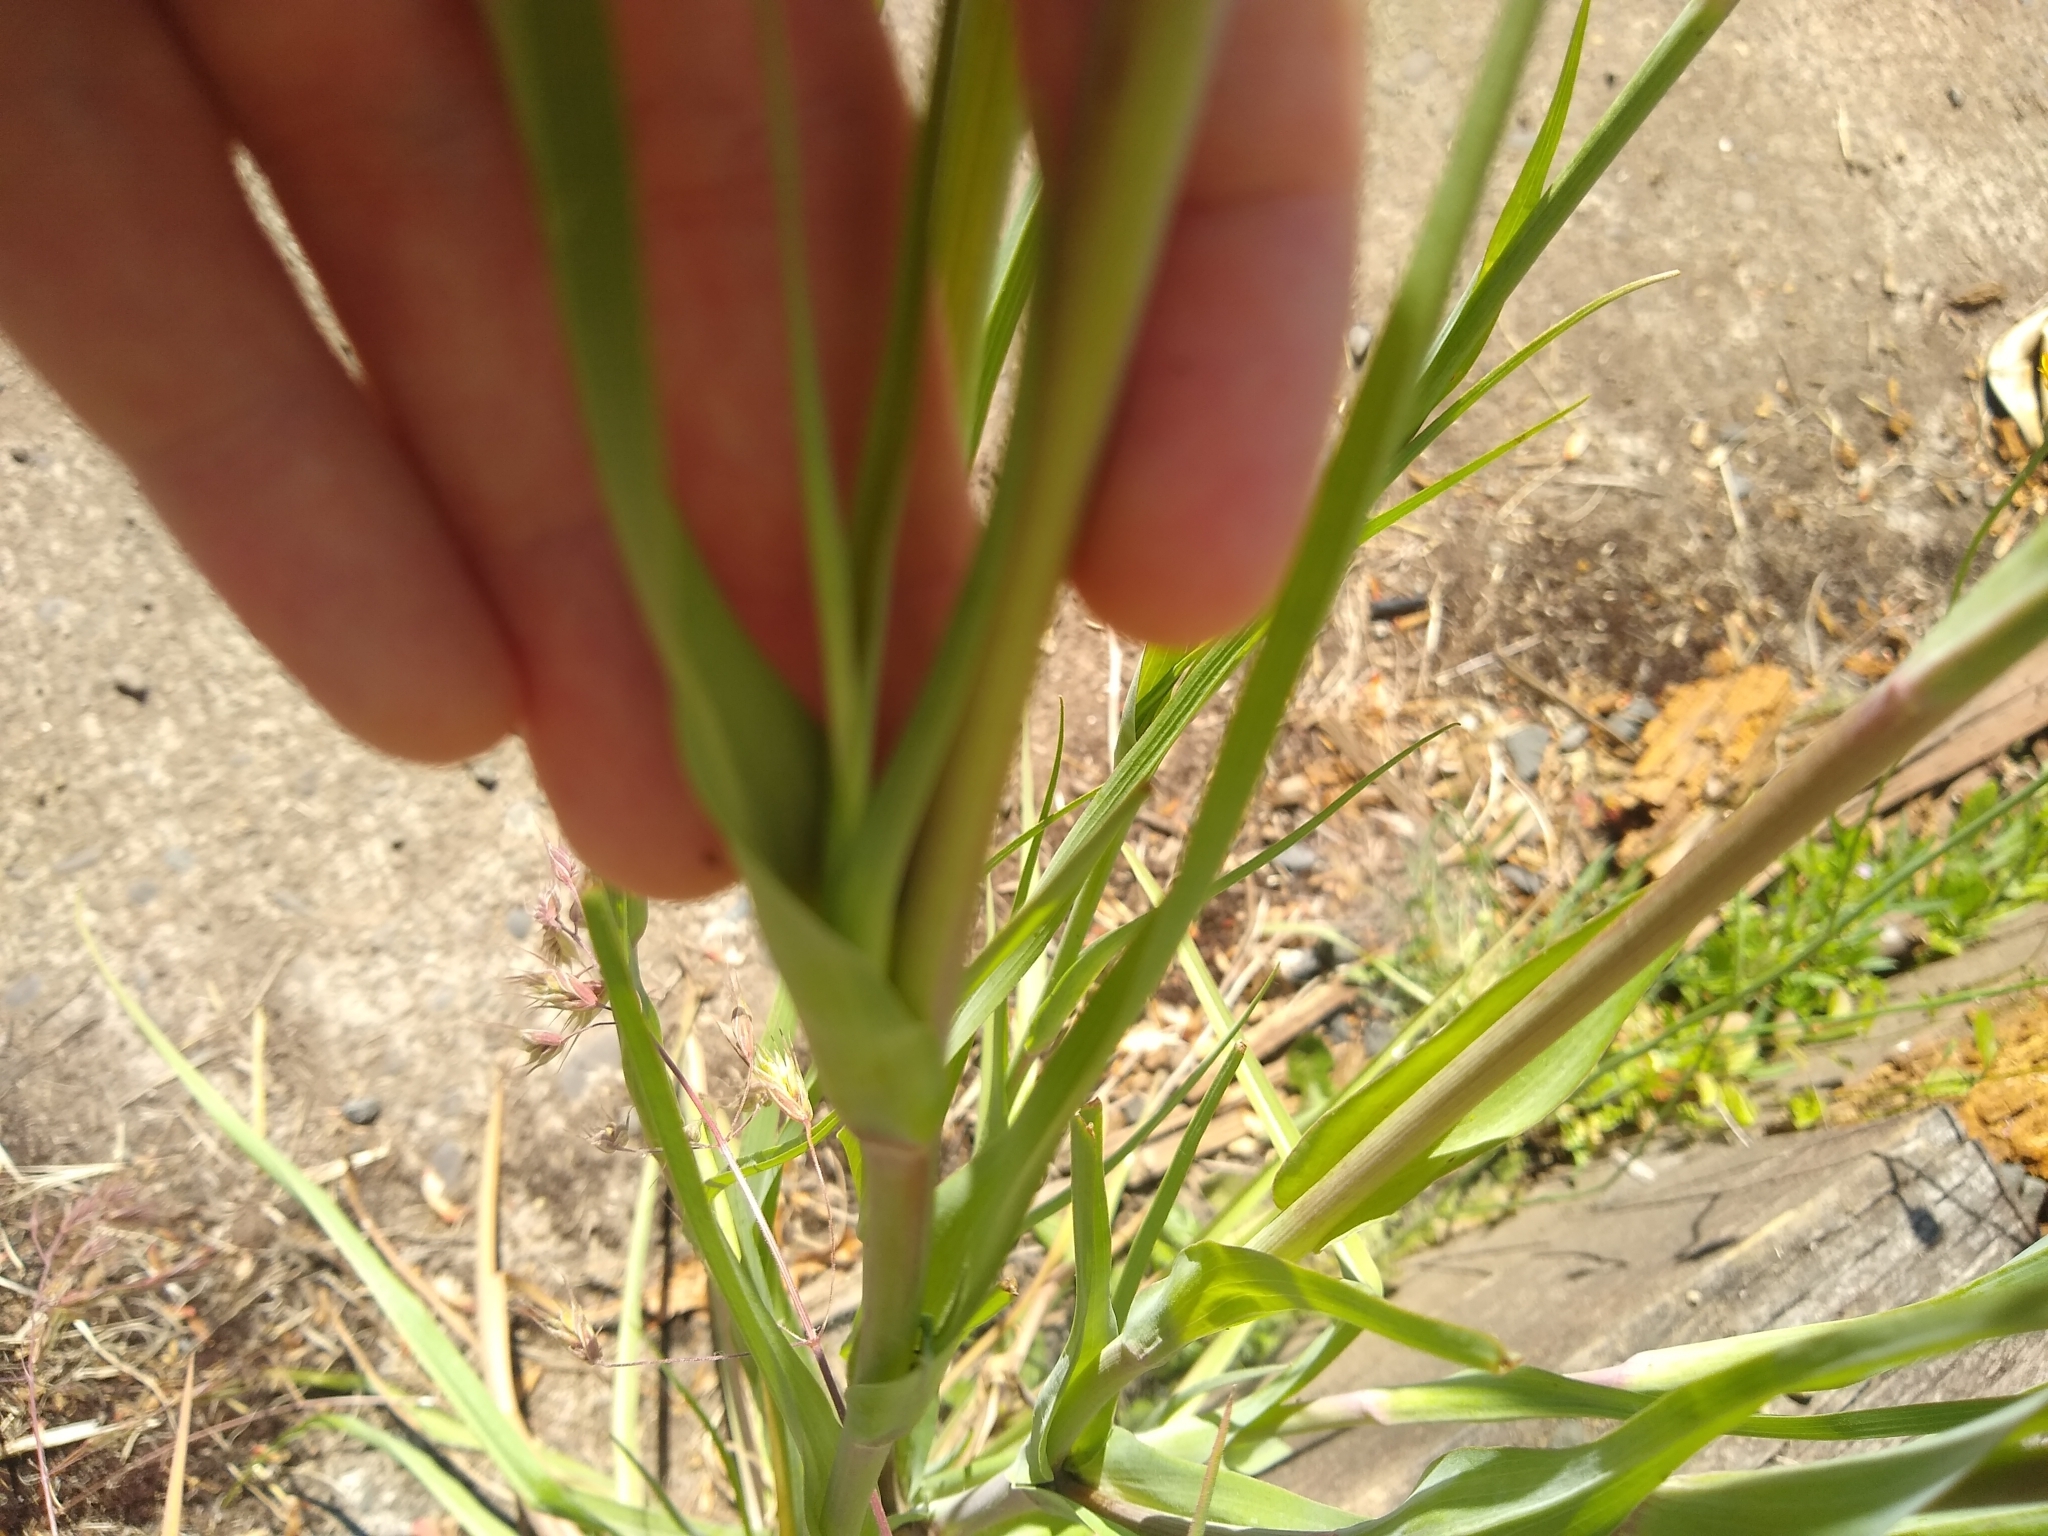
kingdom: Plantae
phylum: Tracheophyta
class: Magnoliopsida
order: Asterales
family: Asteraceae
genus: Tragopogon
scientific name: Tragopogon porrifolius
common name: Salsify
